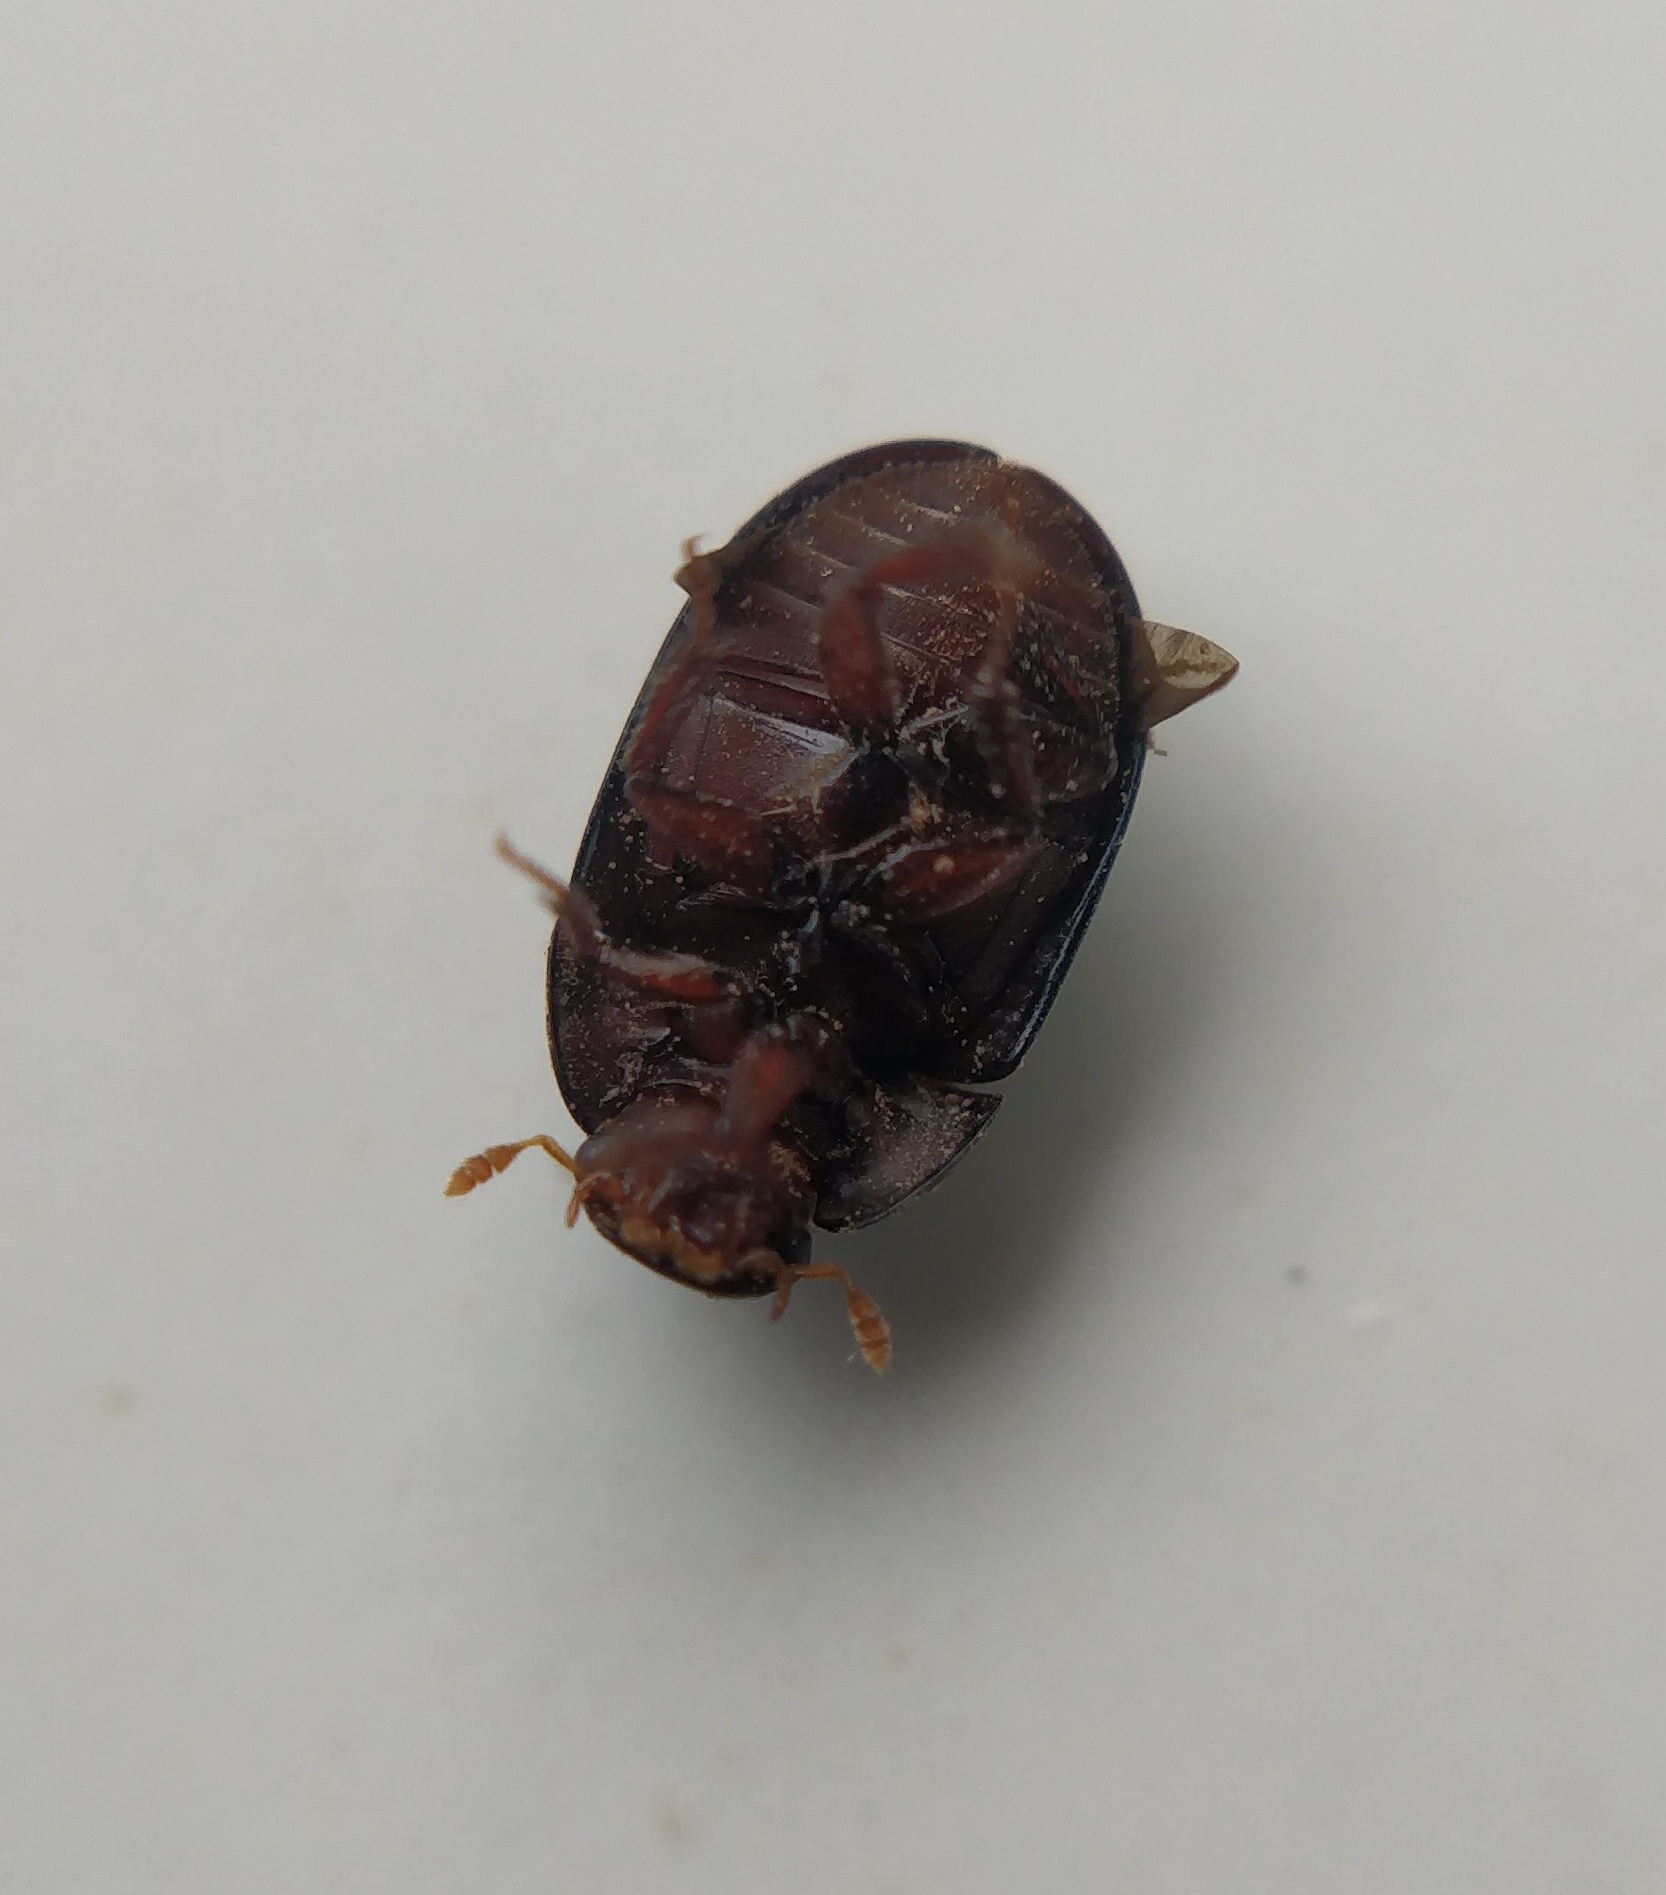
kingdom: Animalia
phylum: Arthropoda
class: Insecta
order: Coleoptera
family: Hydrophilidae
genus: Dactylosternum
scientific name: Dactylosternum abdominale
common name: Water scavenger beetle
